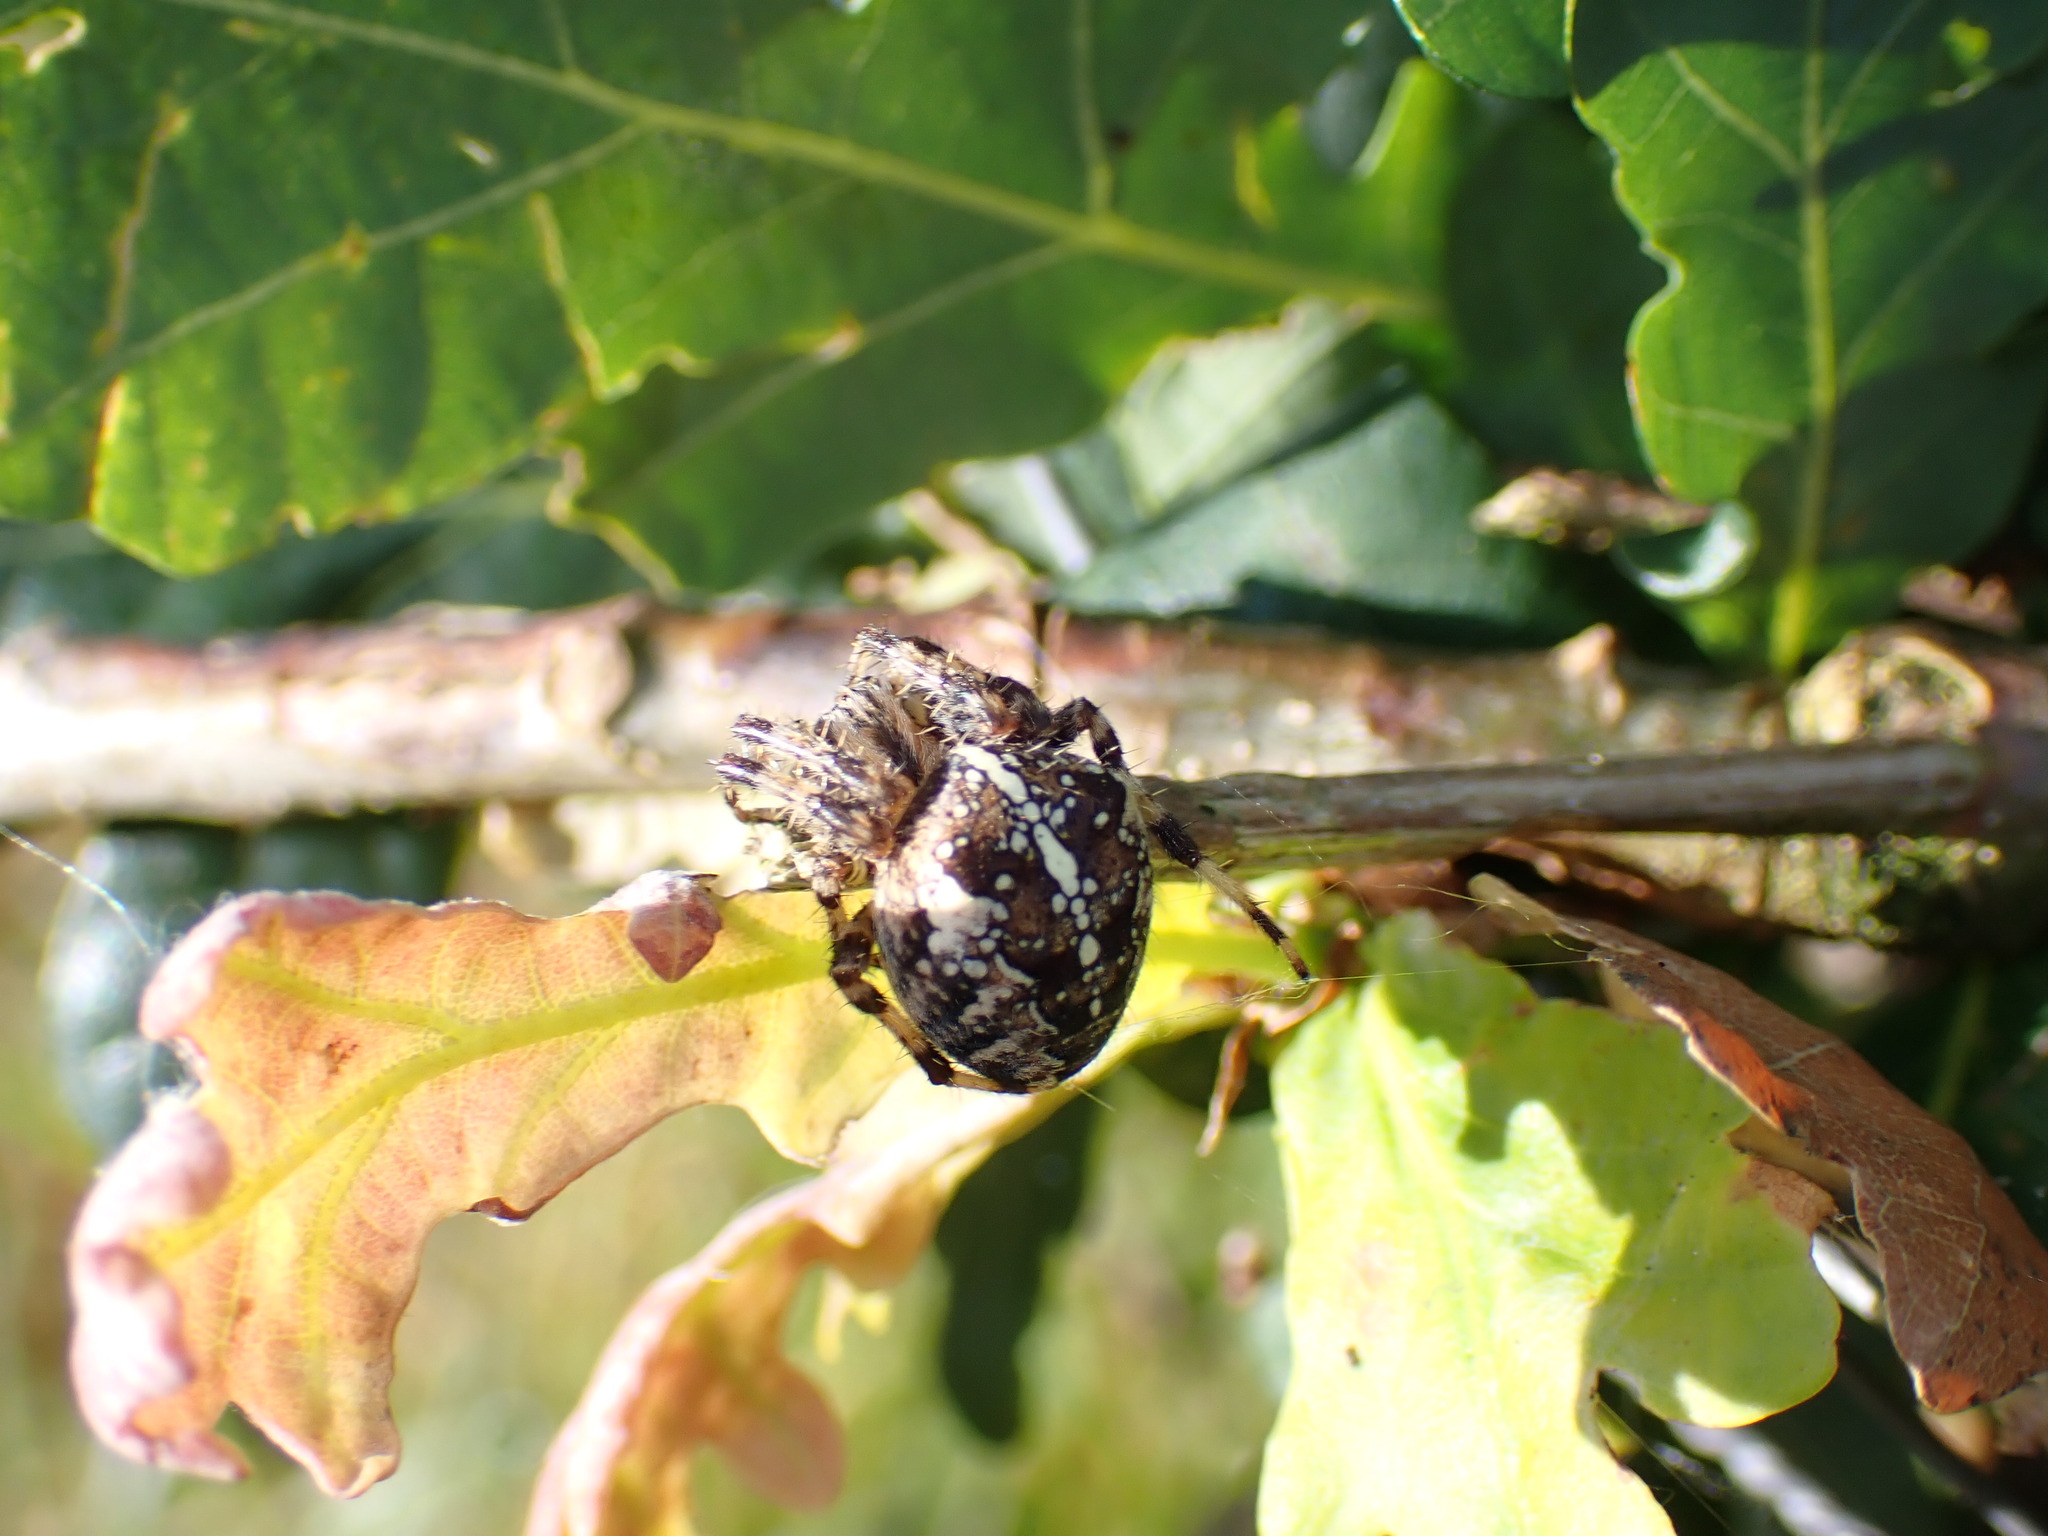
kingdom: Animalia
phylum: Arthropoda
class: Arachnida
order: Araneae
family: Araneidae
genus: Araneus
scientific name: Araneus diadematus
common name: Cross orbweaver
